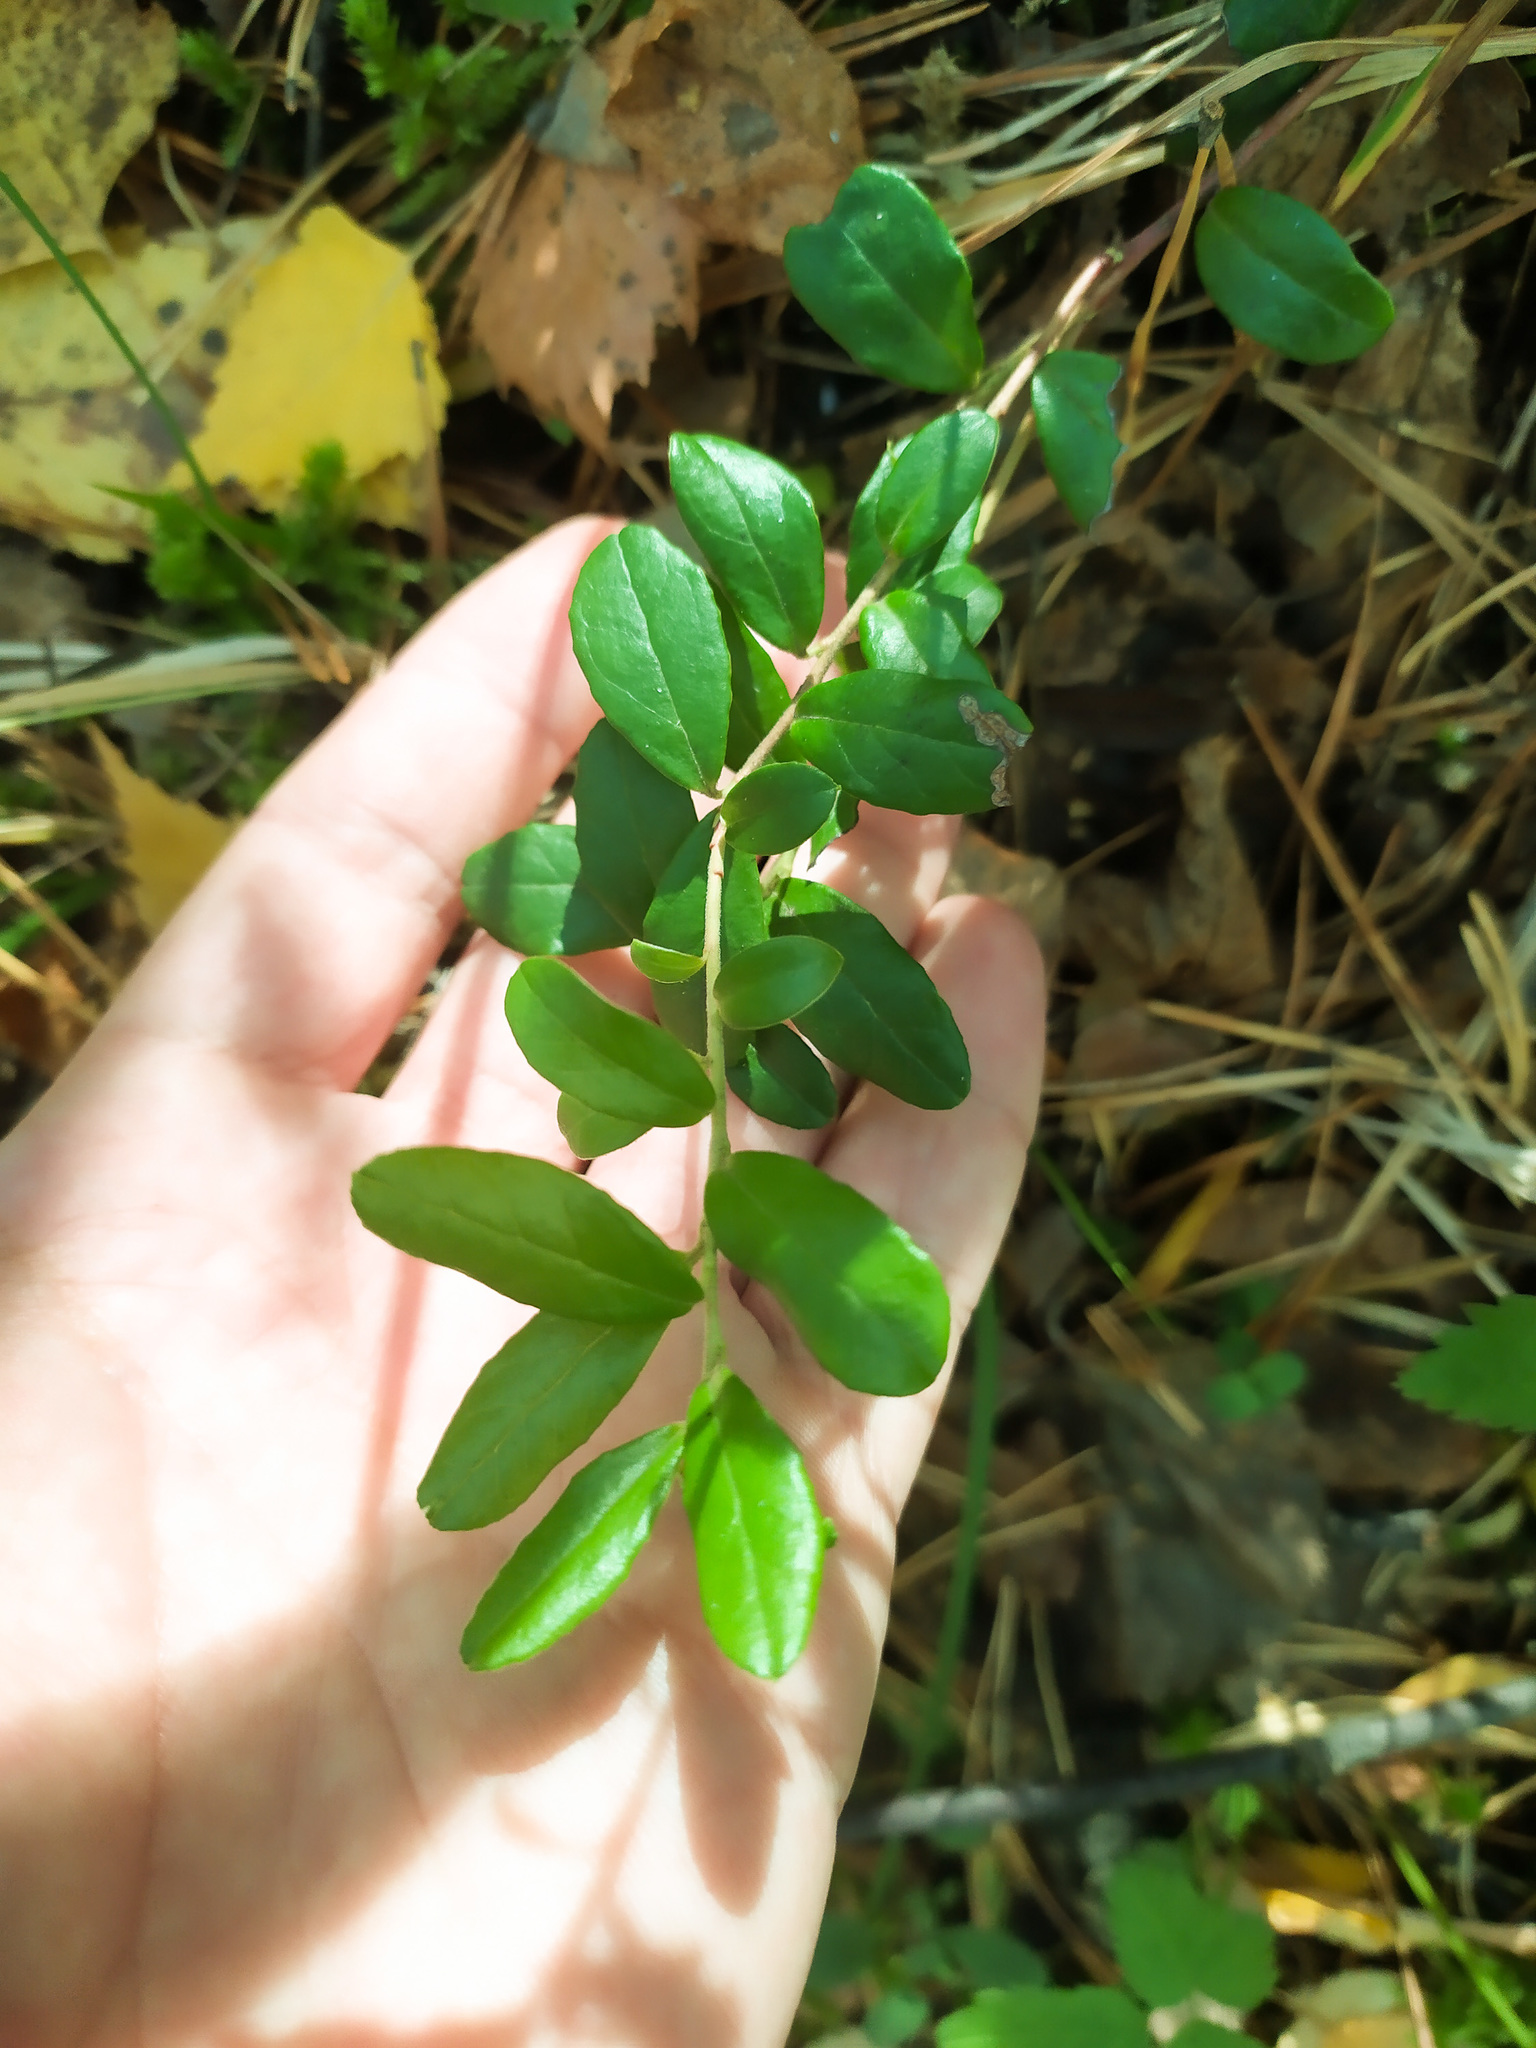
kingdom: Plantae
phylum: Tracheophyta
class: Magnoliopsida
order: Ericales
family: Ericaceae
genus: Vaccinium
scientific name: Vaccinium vitis-idaea
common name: Cowberry
